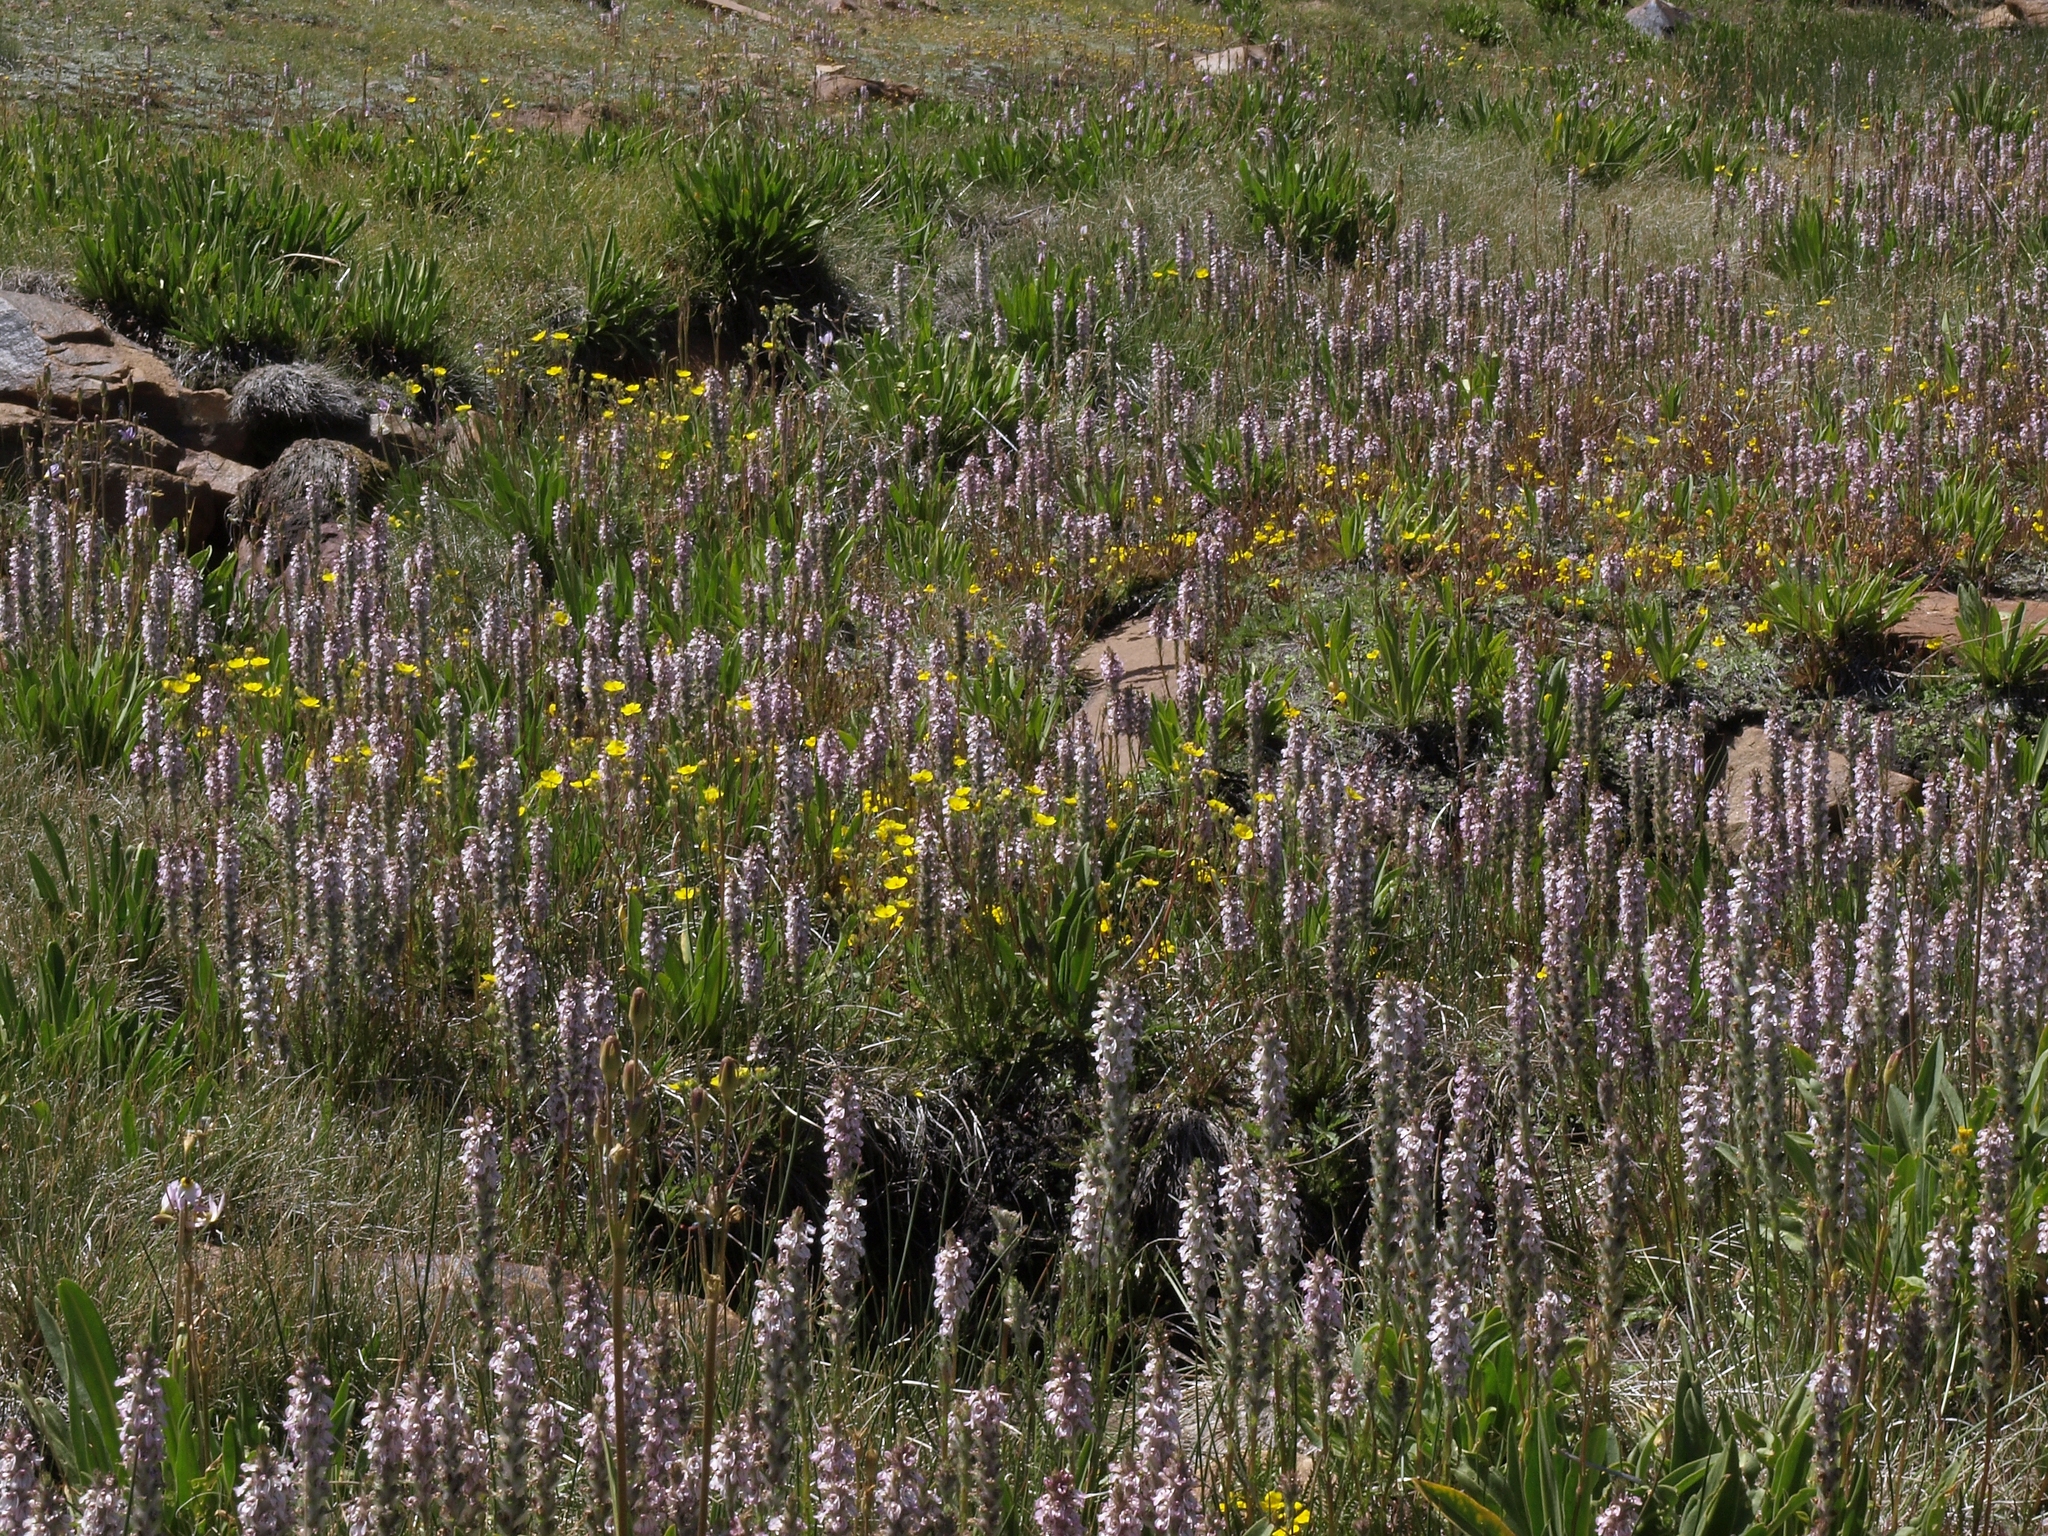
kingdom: Plantae
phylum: Tracheophyta
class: Magnoliopsida
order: Lamiales
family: Orobanchaceae
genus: Pedicularis
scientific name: Pedicularis attollens
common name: Slender pedicularis
